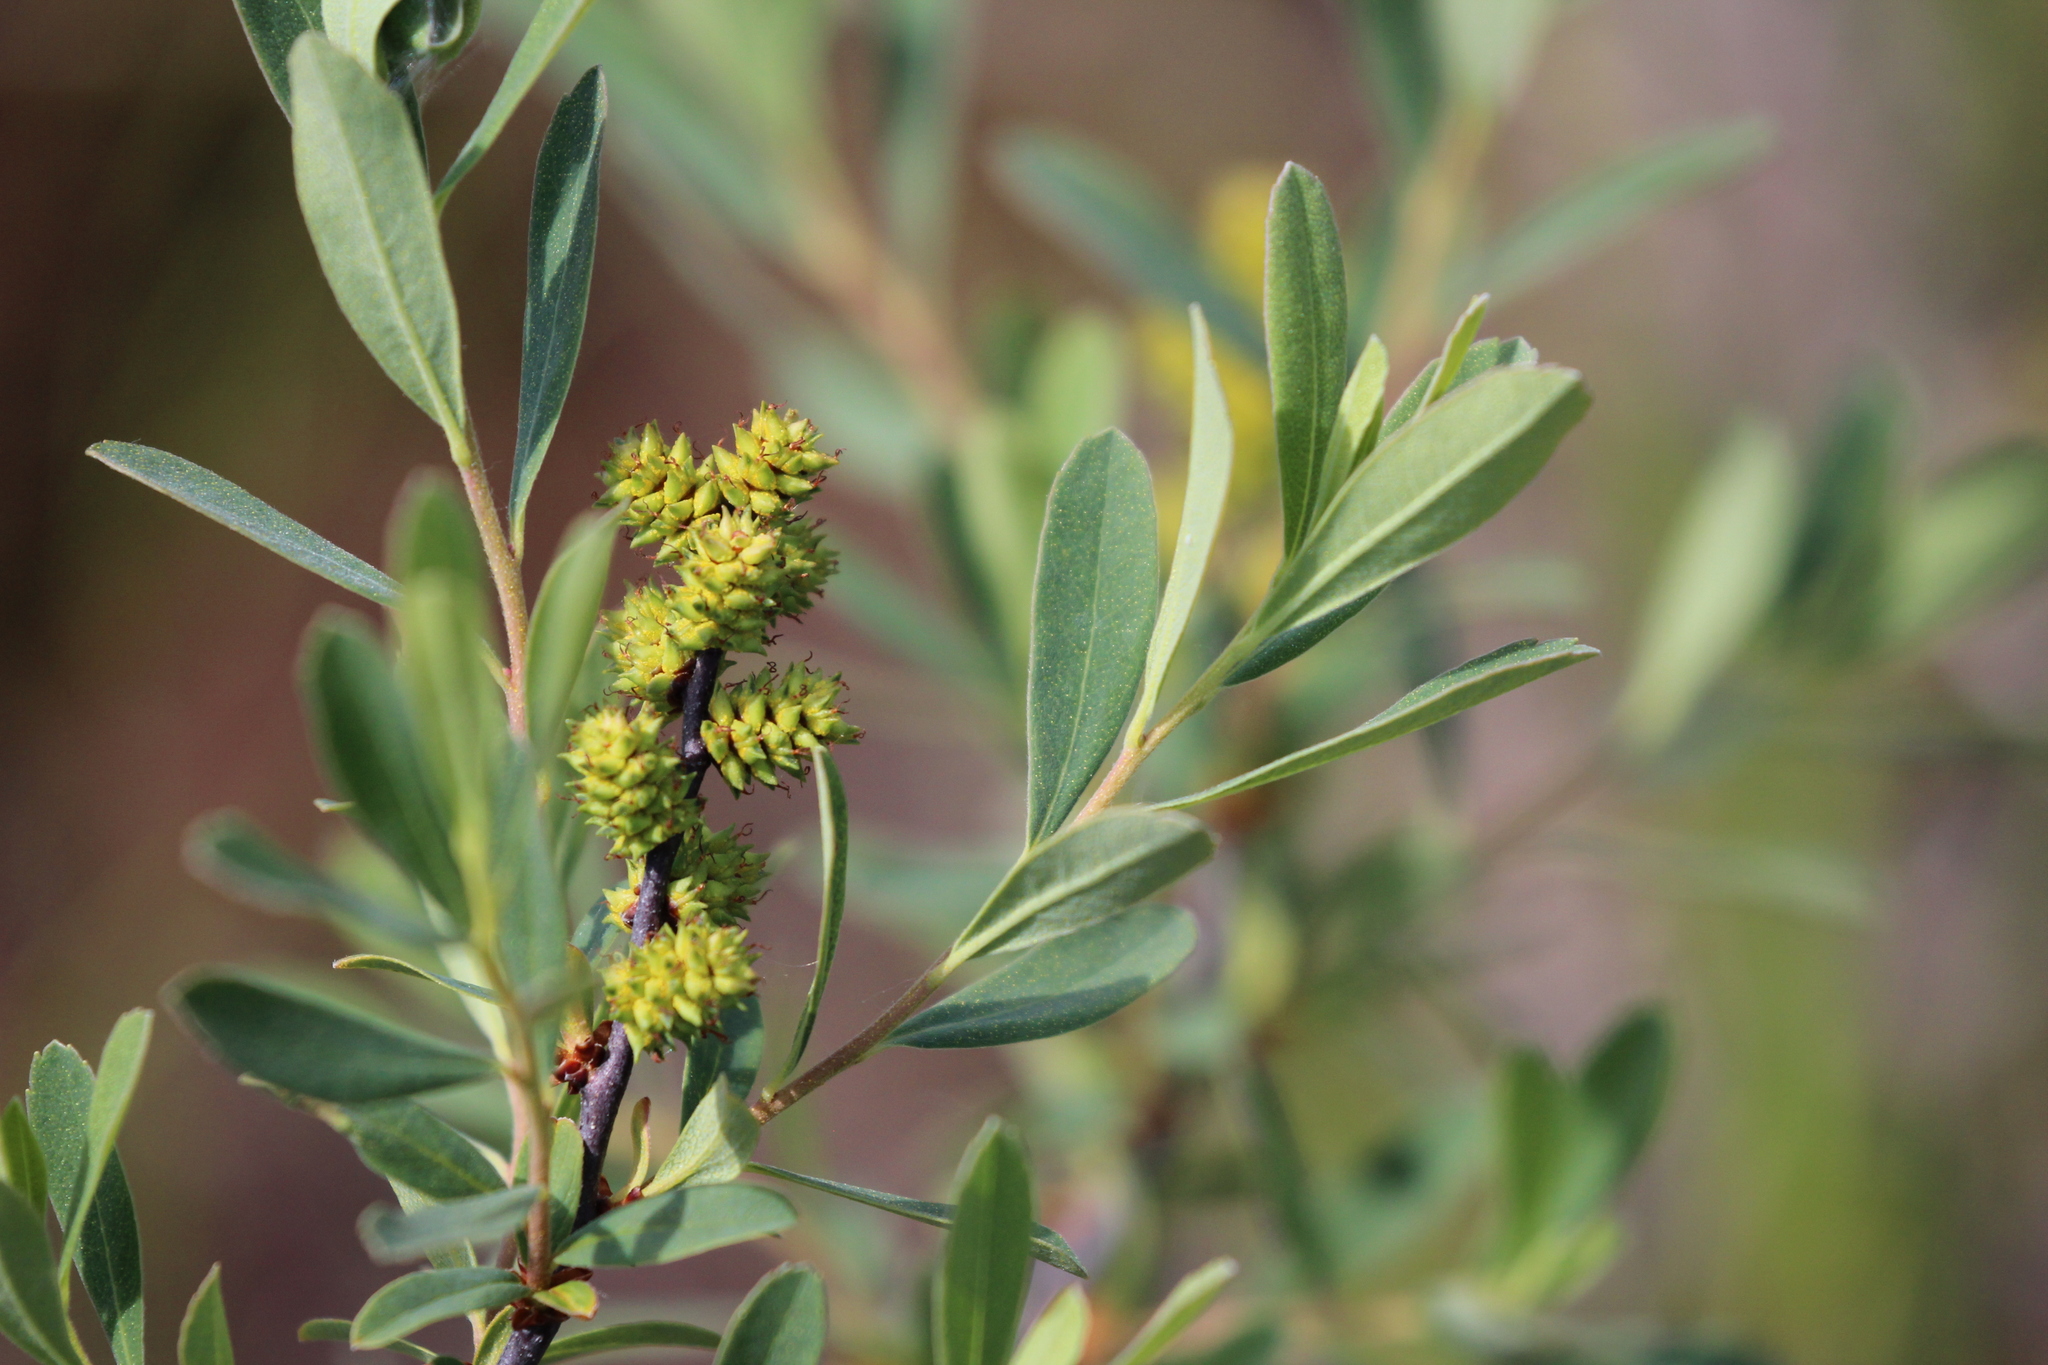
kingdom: Plantae
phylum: Tracheophyta
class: Magnoliopsida
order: Fagales
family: Myricaceae
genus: Myrica
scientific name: Myrica gale
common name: Sweet gale
